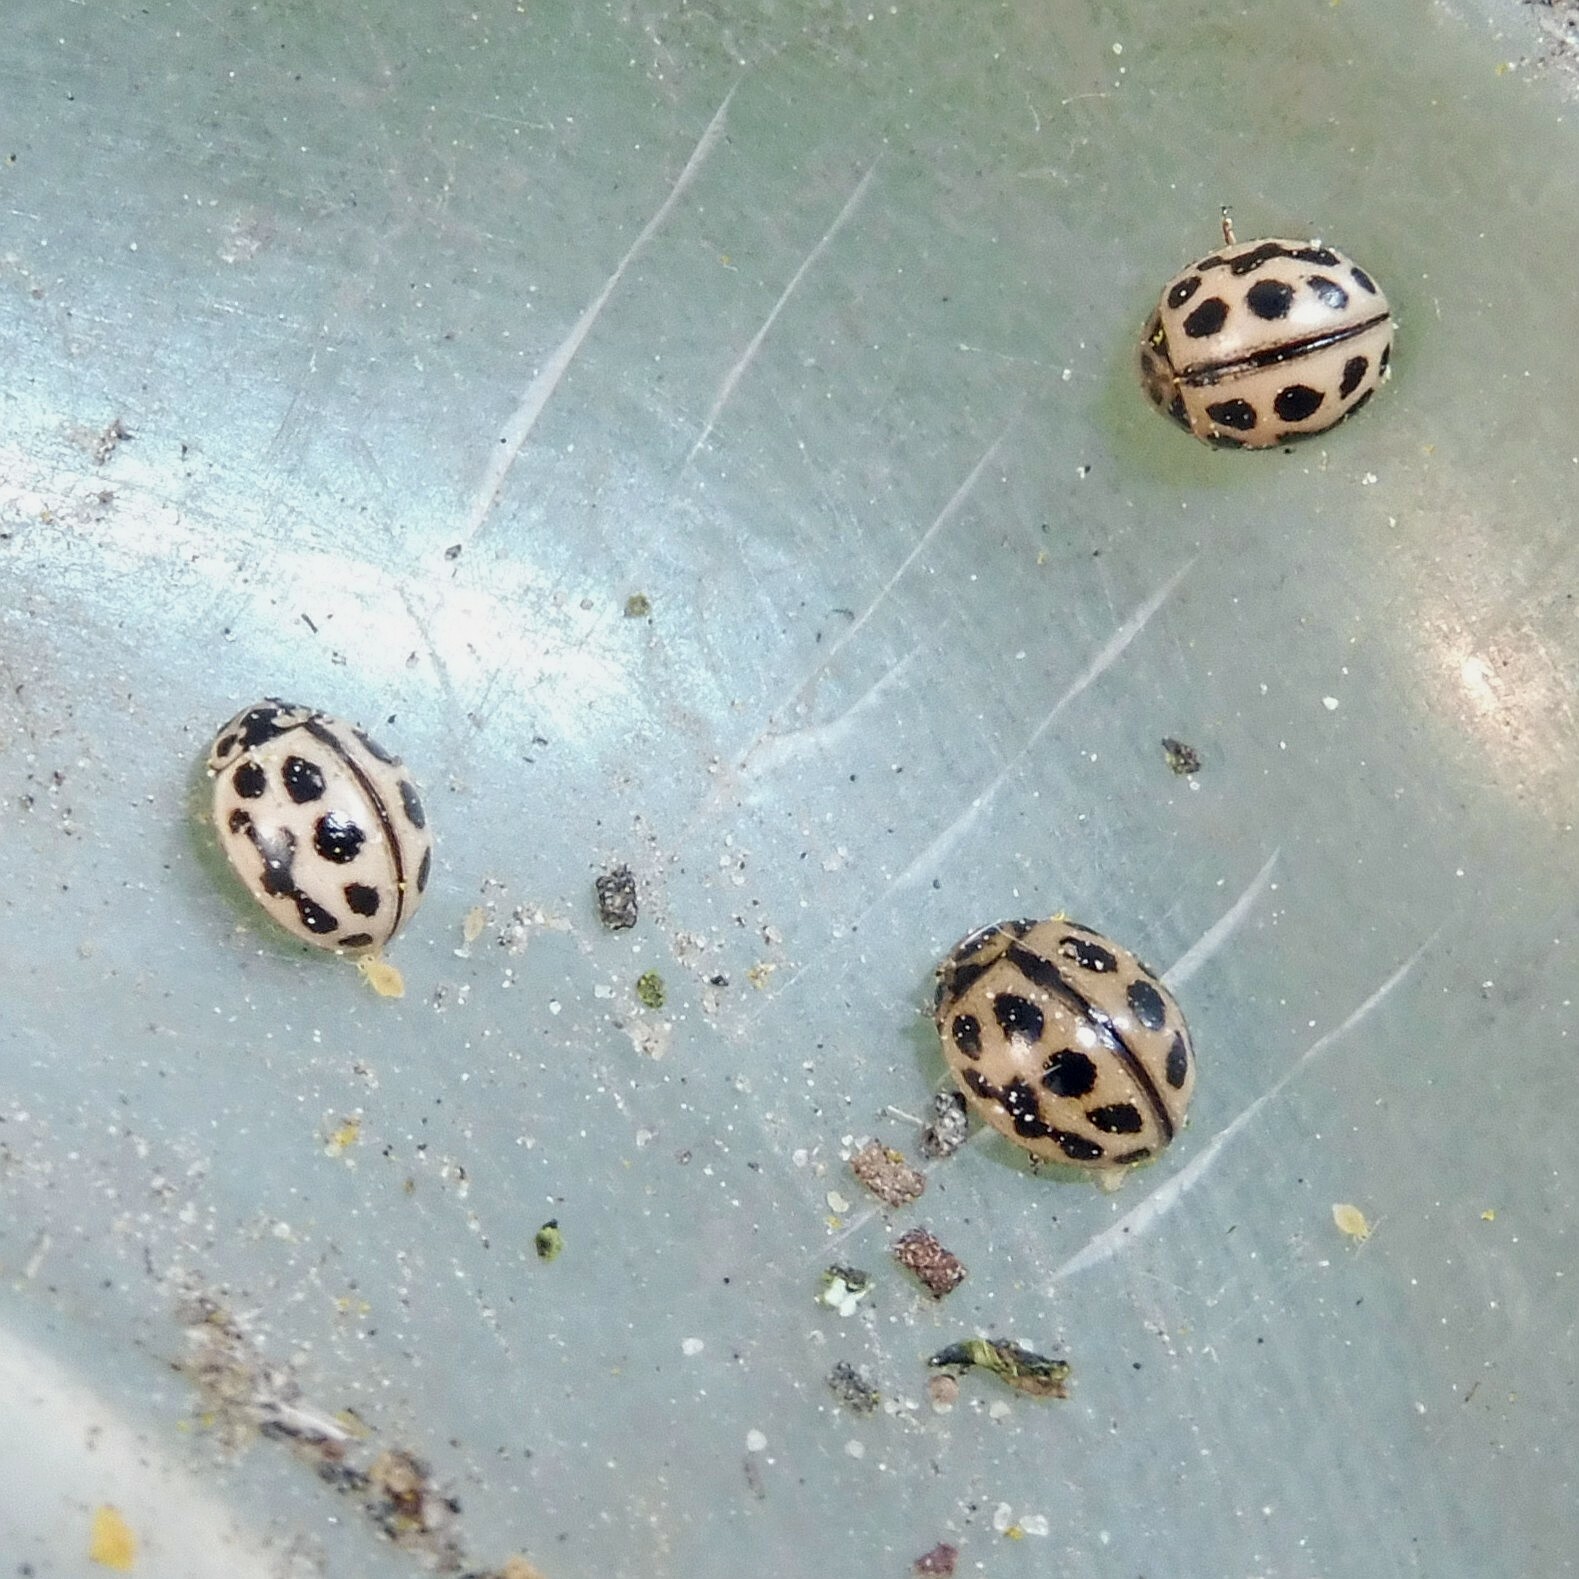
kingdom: Animalia
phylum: Arthropoda
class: Insecta
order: Coleoptera
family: Coccinellidae
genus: Tytthaspis
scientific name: Tytthaspis sedecimpunctata
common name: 16-spot ladybird
